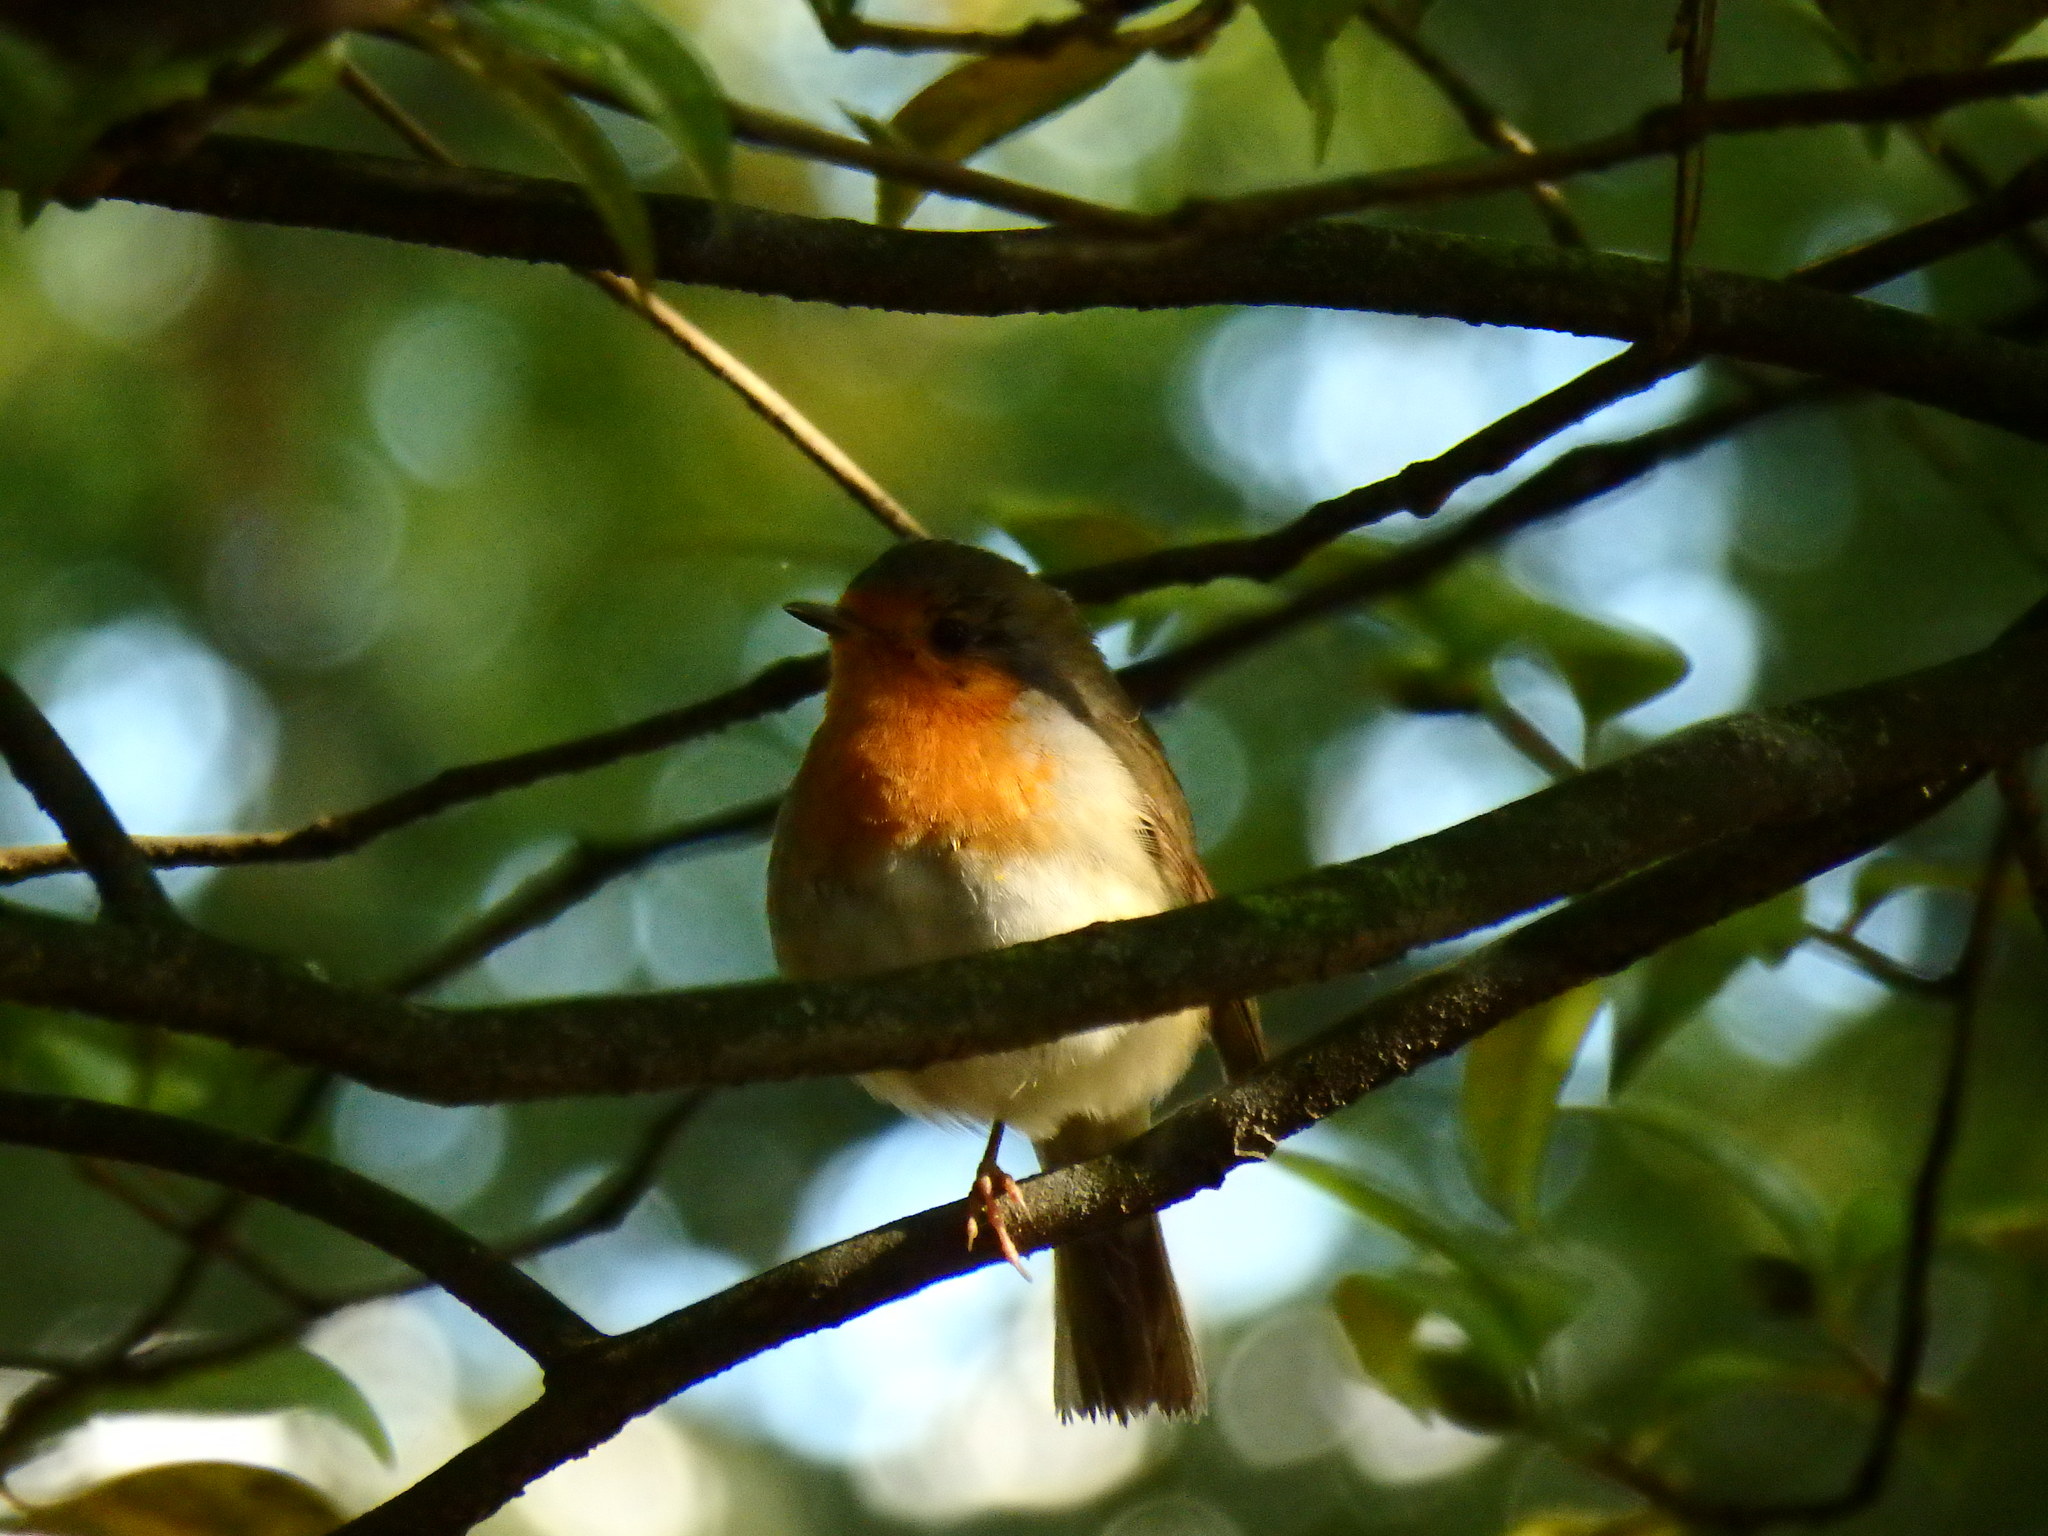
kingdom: Animalia
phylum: Chordata
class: Aves
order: Passeriformes
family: Muscicapidae
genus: Erithacus
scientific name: Erithacus rubecula
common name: European robin
